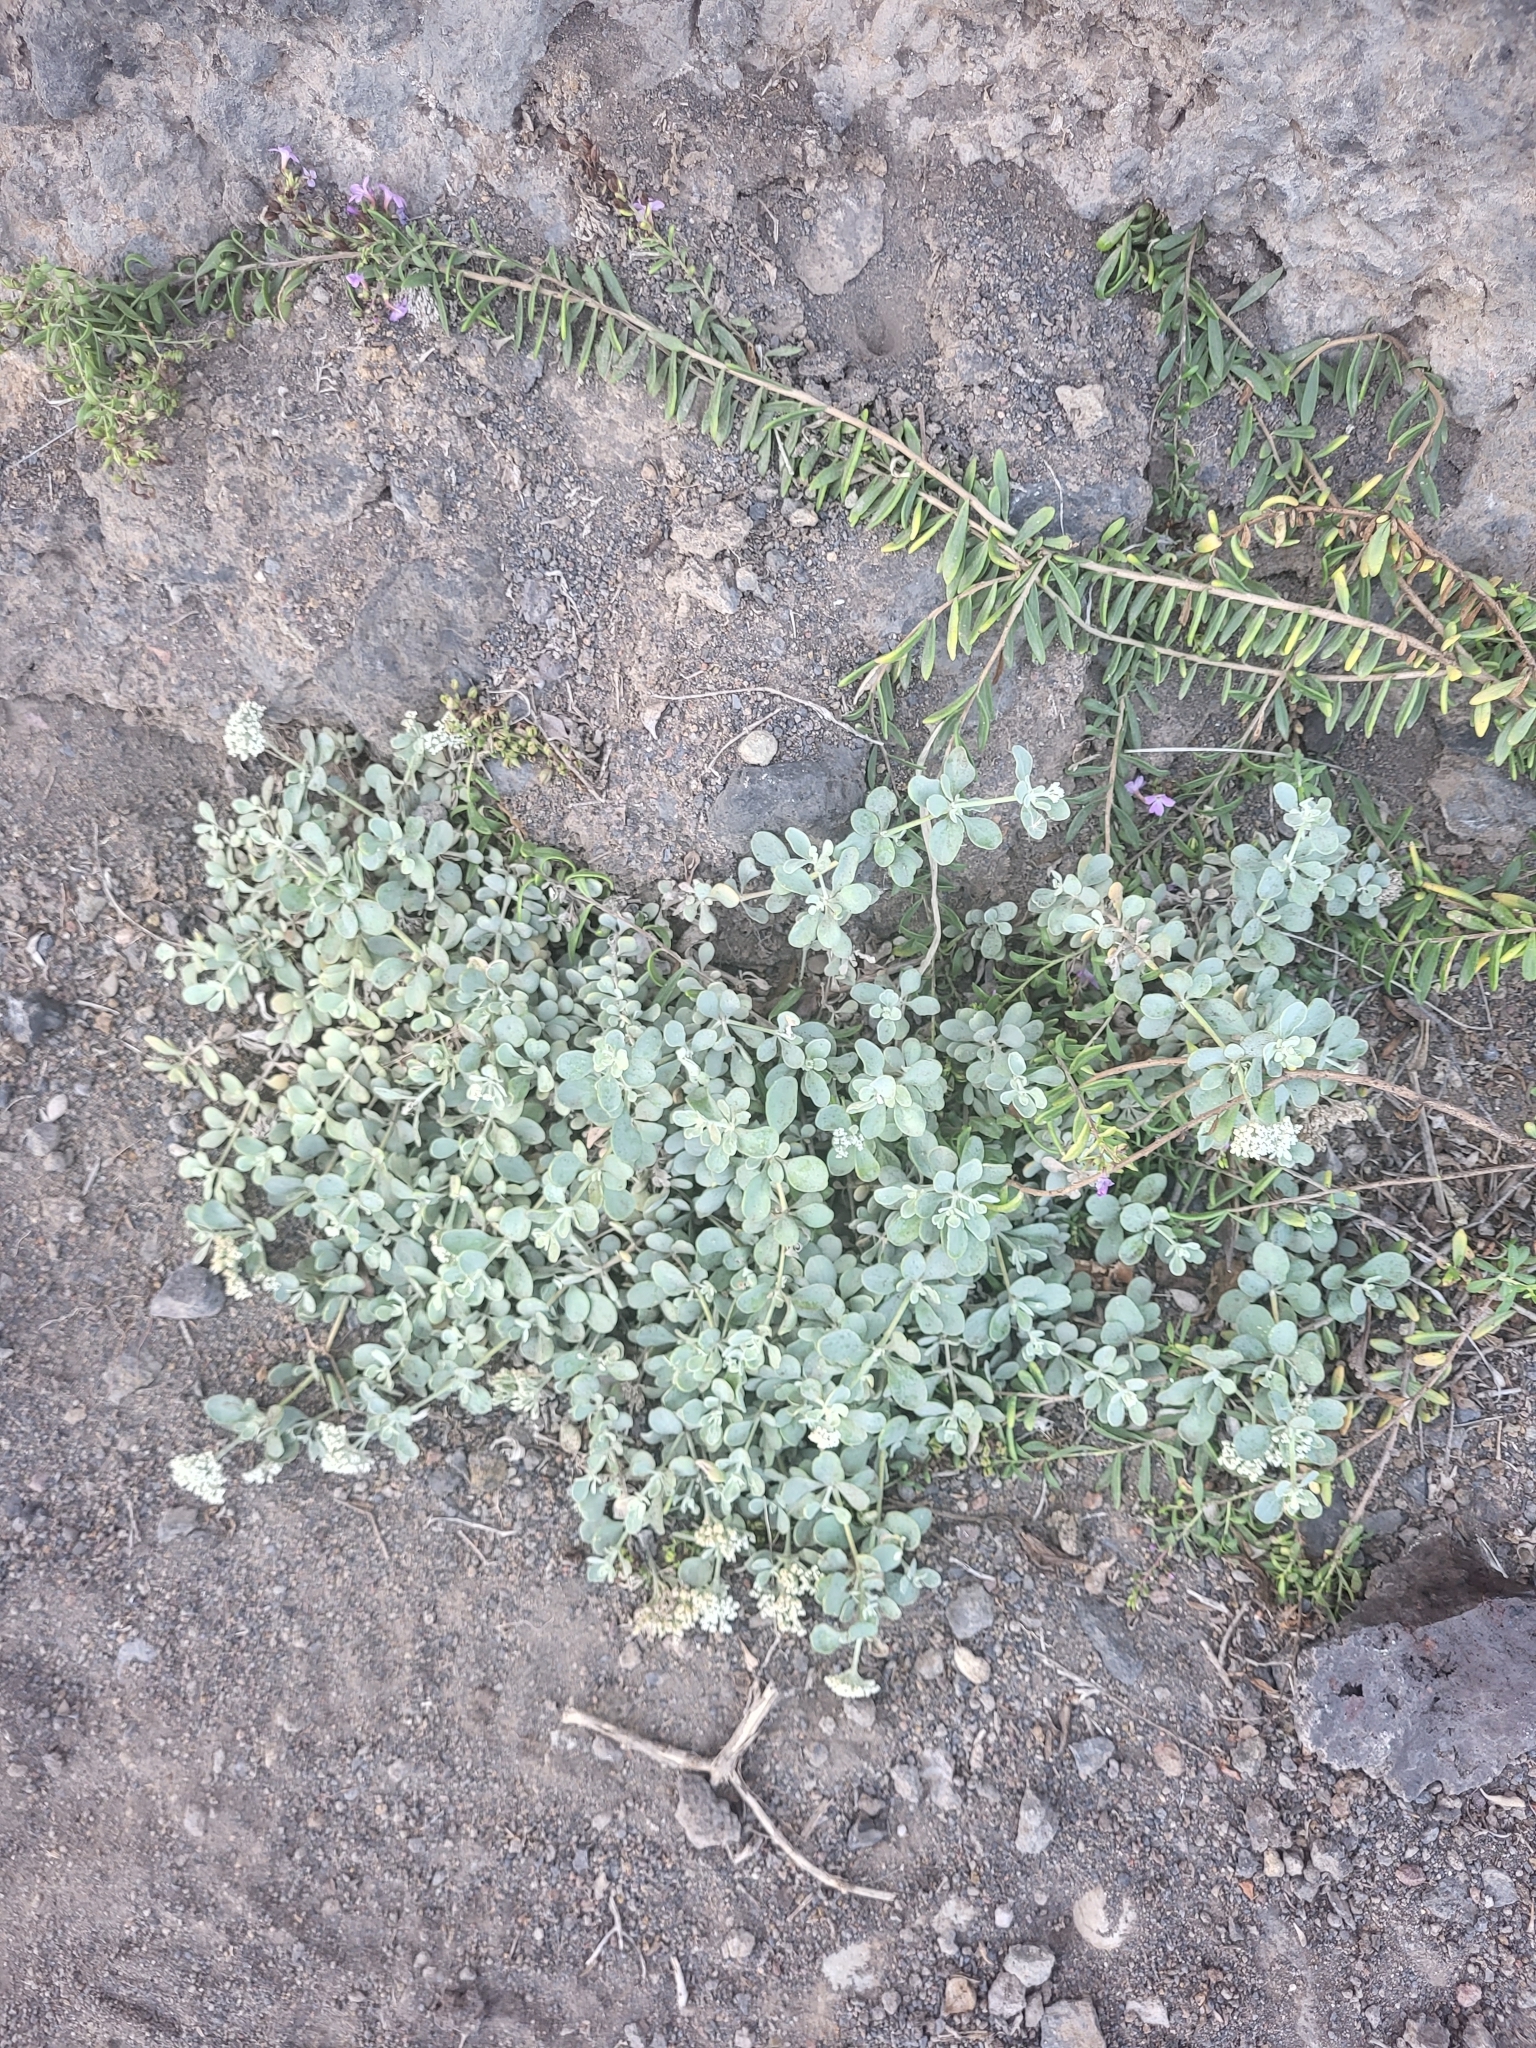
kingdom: Plantae
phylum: Tracheophyta
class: Magnoliopsida
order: Caryophyllales
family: Caryophyllaceae
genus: Polycarpaea
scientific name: Polycarpaea gayi
